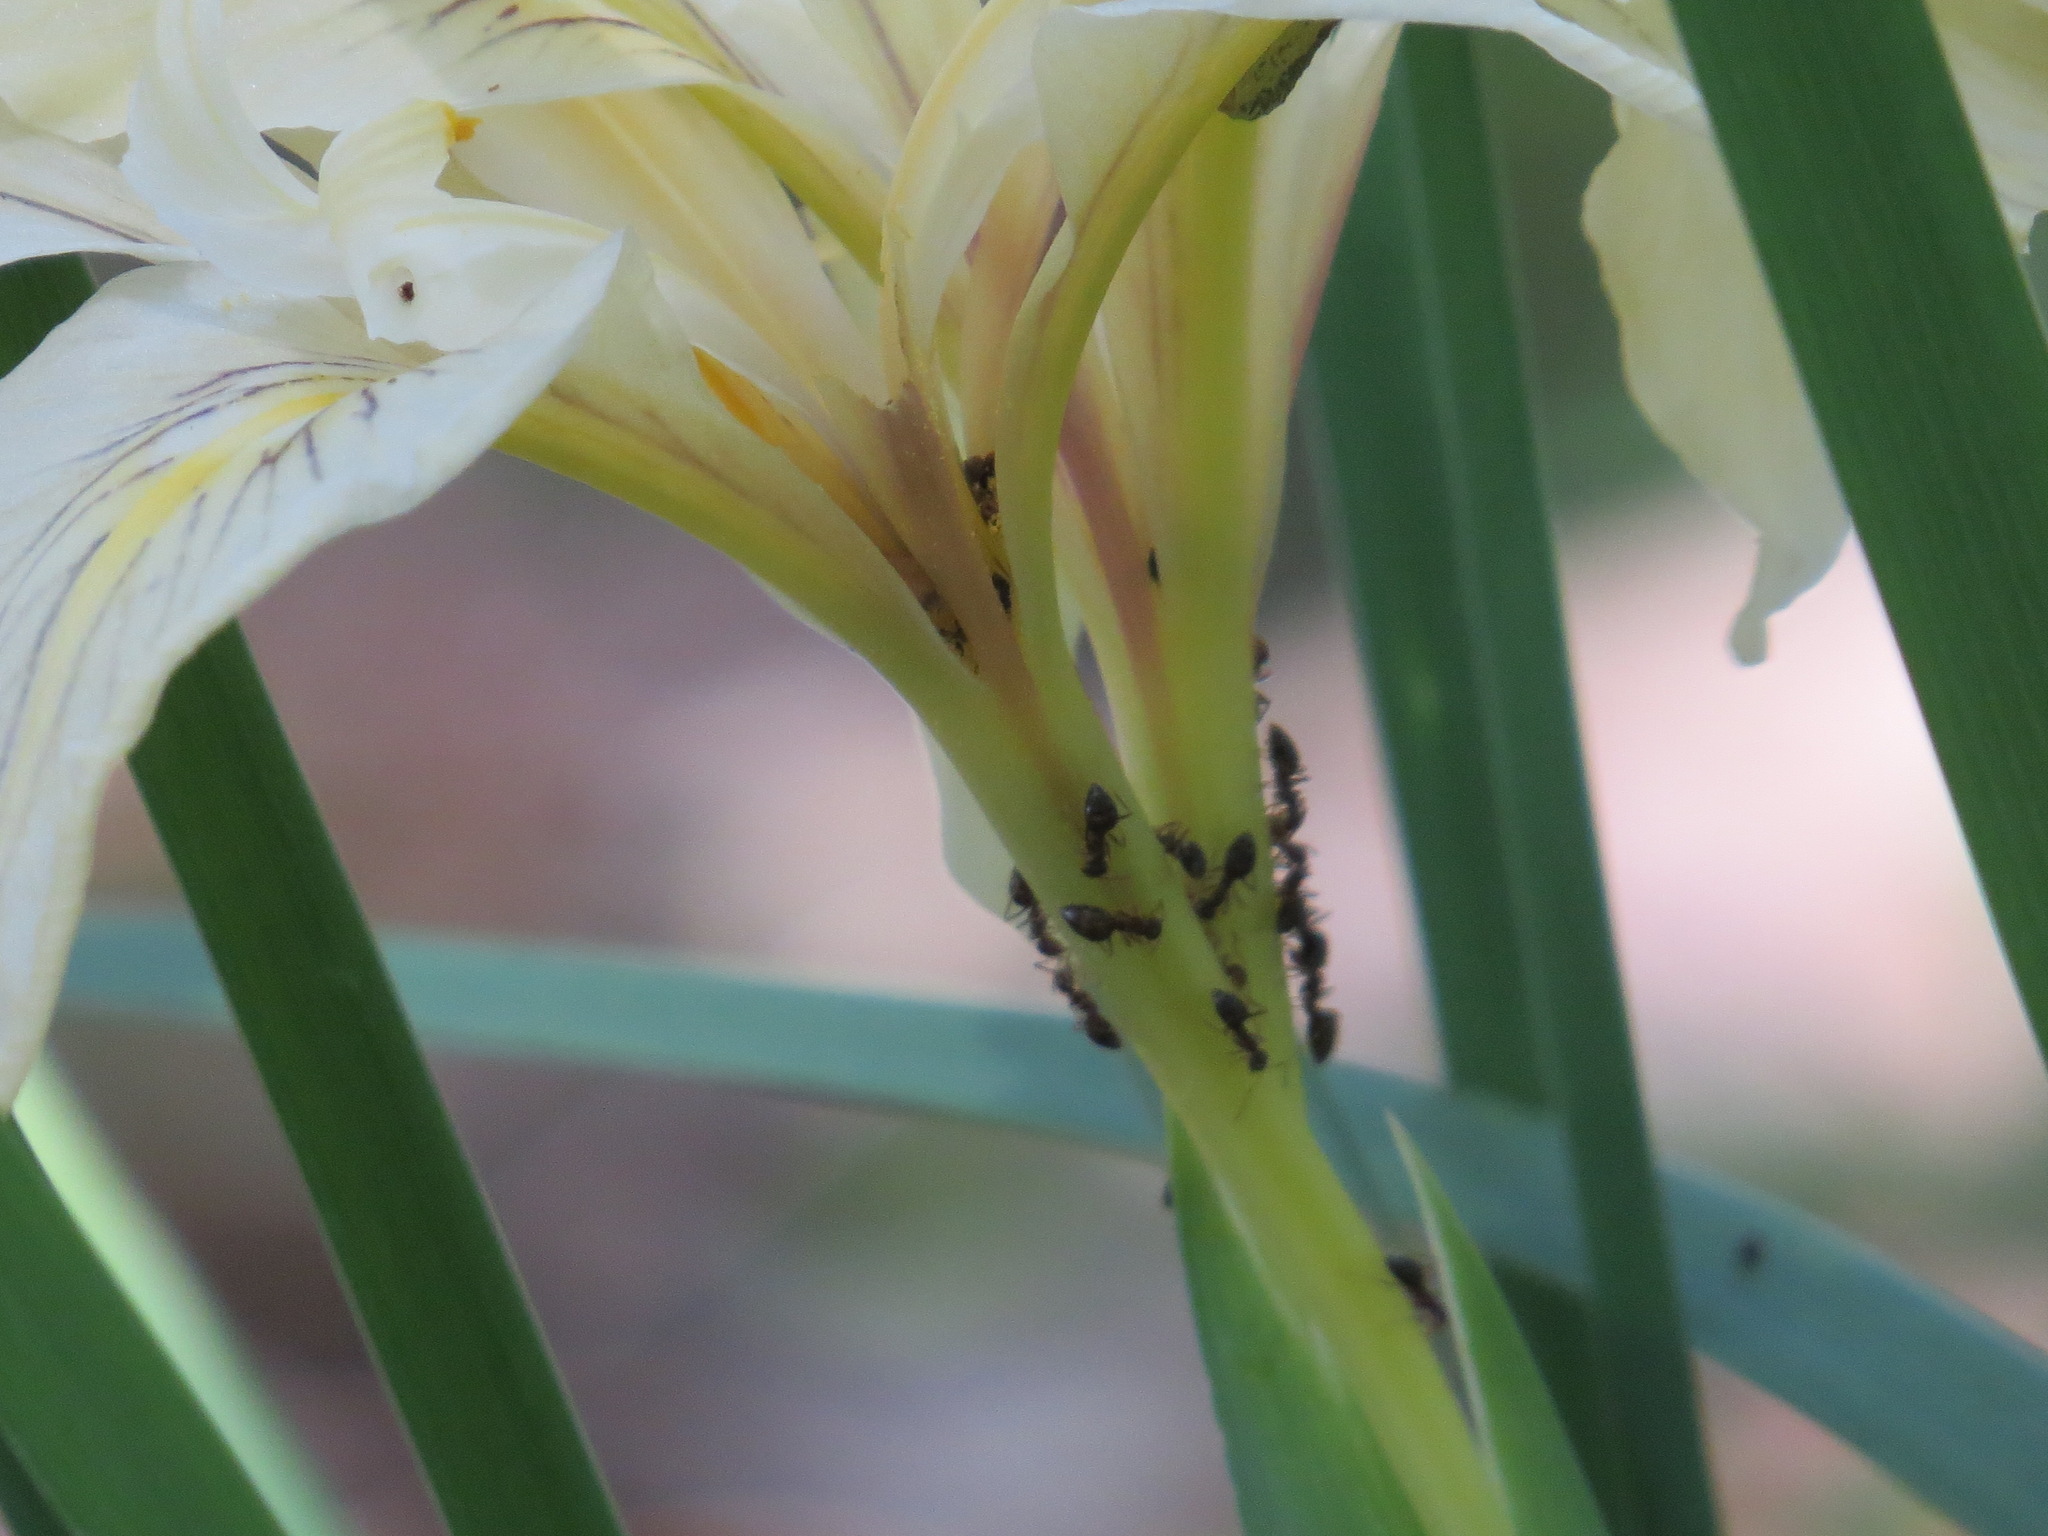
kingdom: Animalia
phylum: Arthropoda
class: Insecta
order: Hymenoptera
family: Formicidae
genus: Prenolepis
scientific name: Prenolepis imparis
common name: Small honey ant
